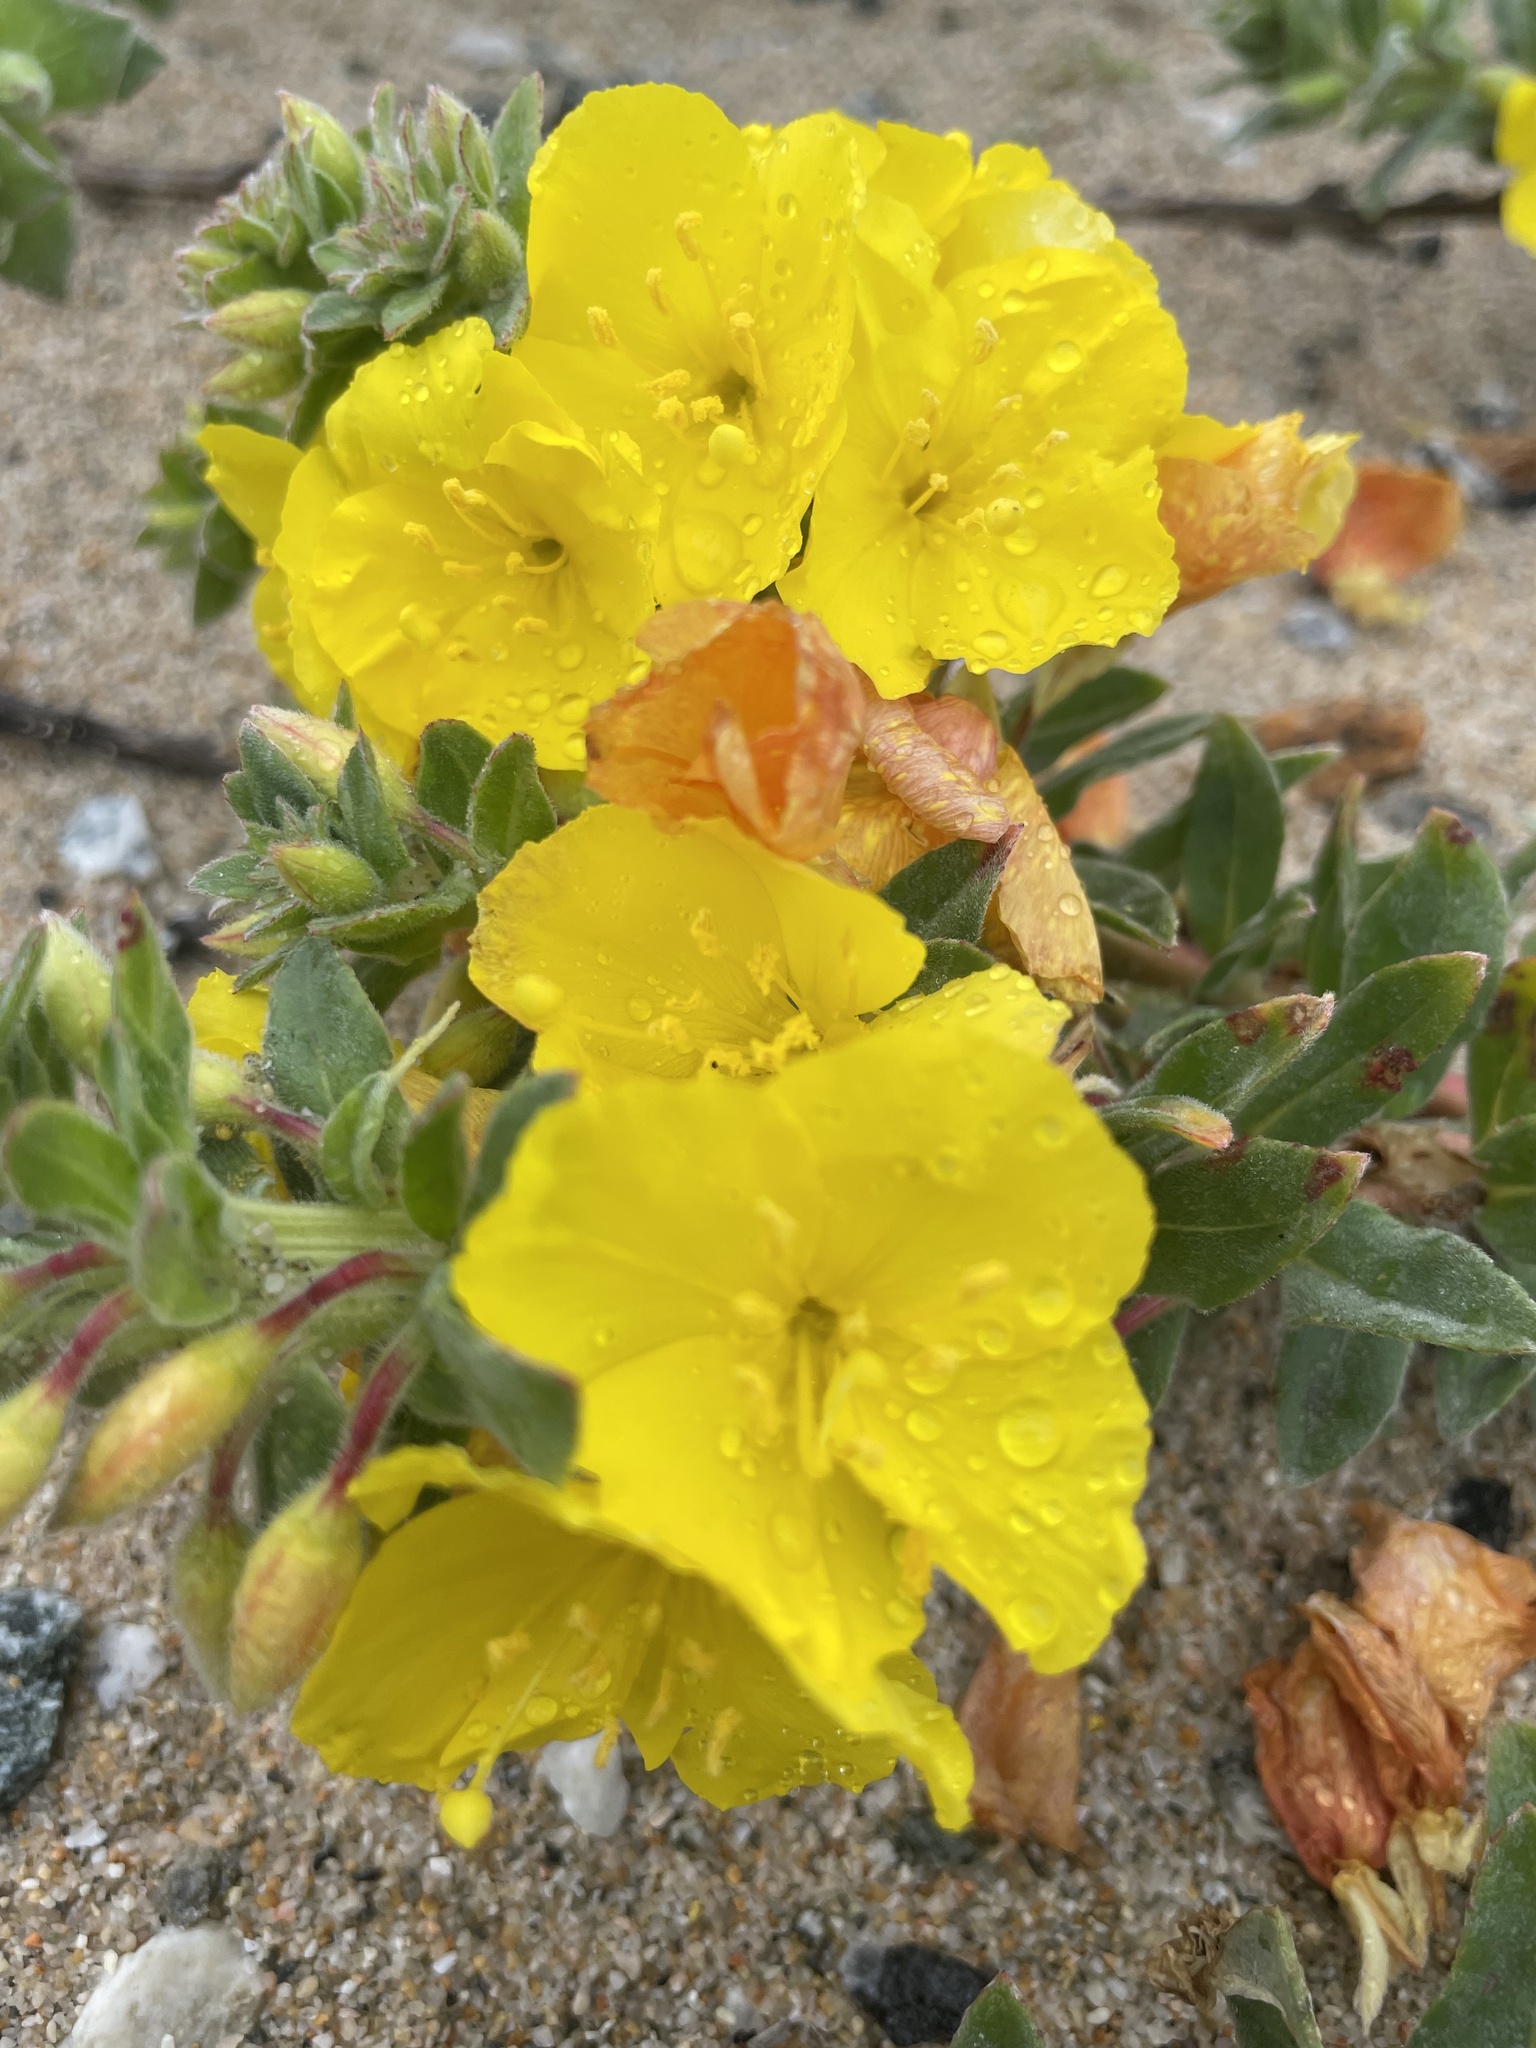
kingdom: Plantae
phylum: Tracheophyta
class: Magnoliopsida
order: Myrtales
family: Onagraceae
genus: Camissoniopsis
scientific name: Camissoniopsis cheiranthifolia
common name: Beach suncup
